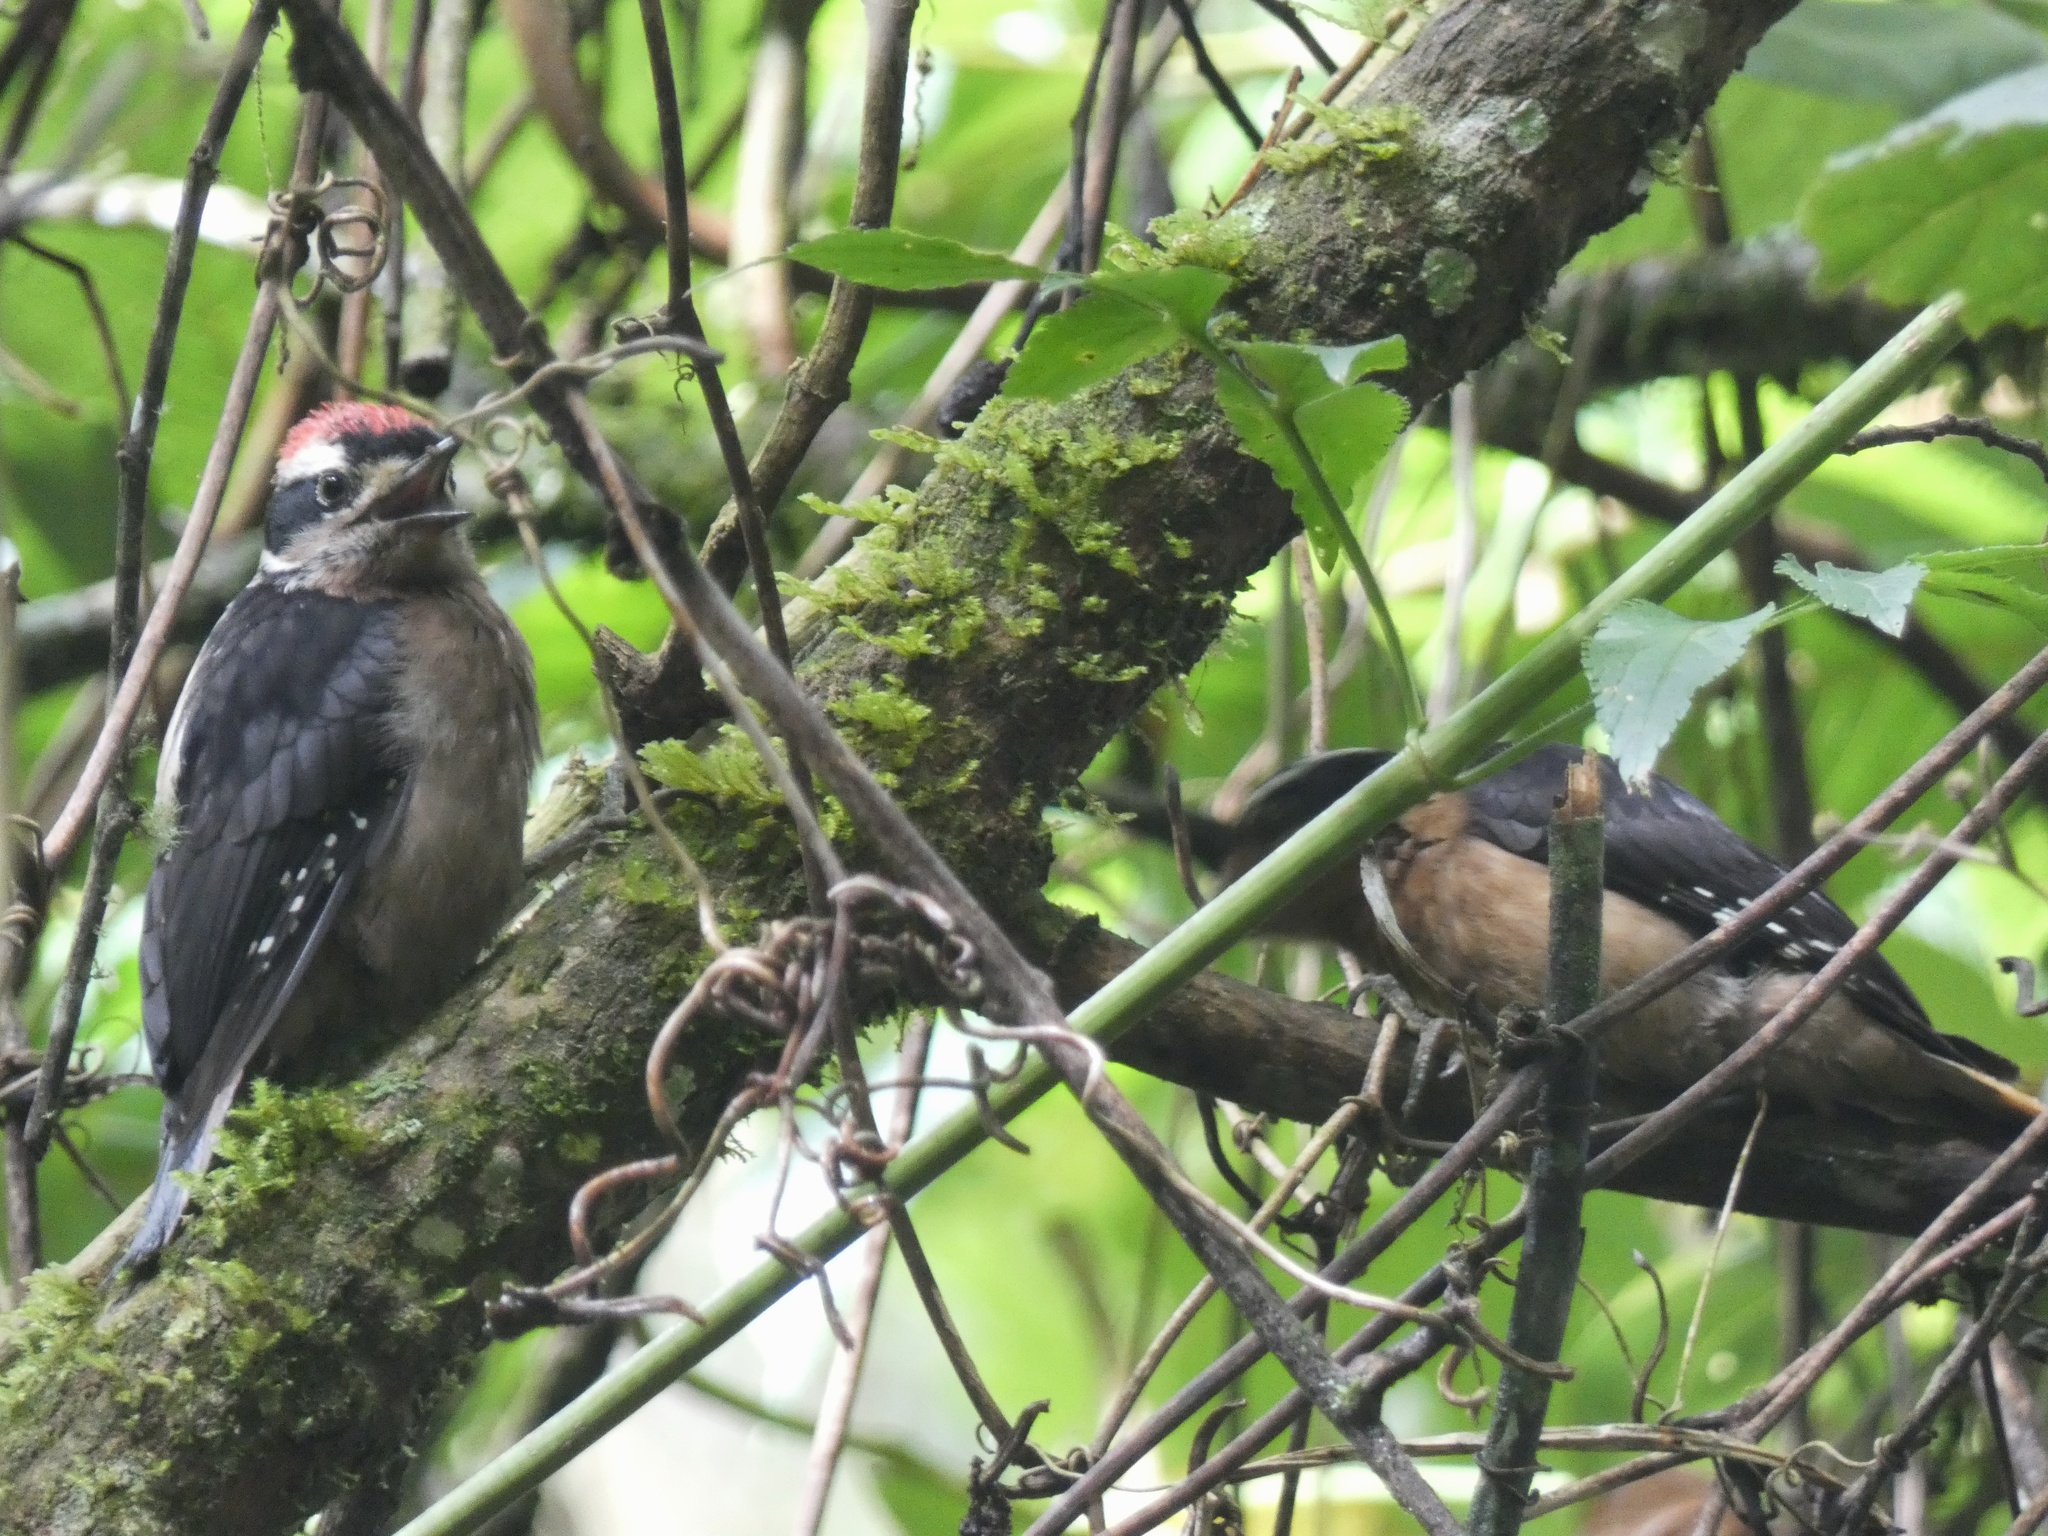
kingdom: Animalia
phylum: Chordata
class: Aves
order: Piciformes
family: Picidae
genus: Leuconotopicus
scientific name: Leuconotopicus villosus
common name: Hairy woodpecker
